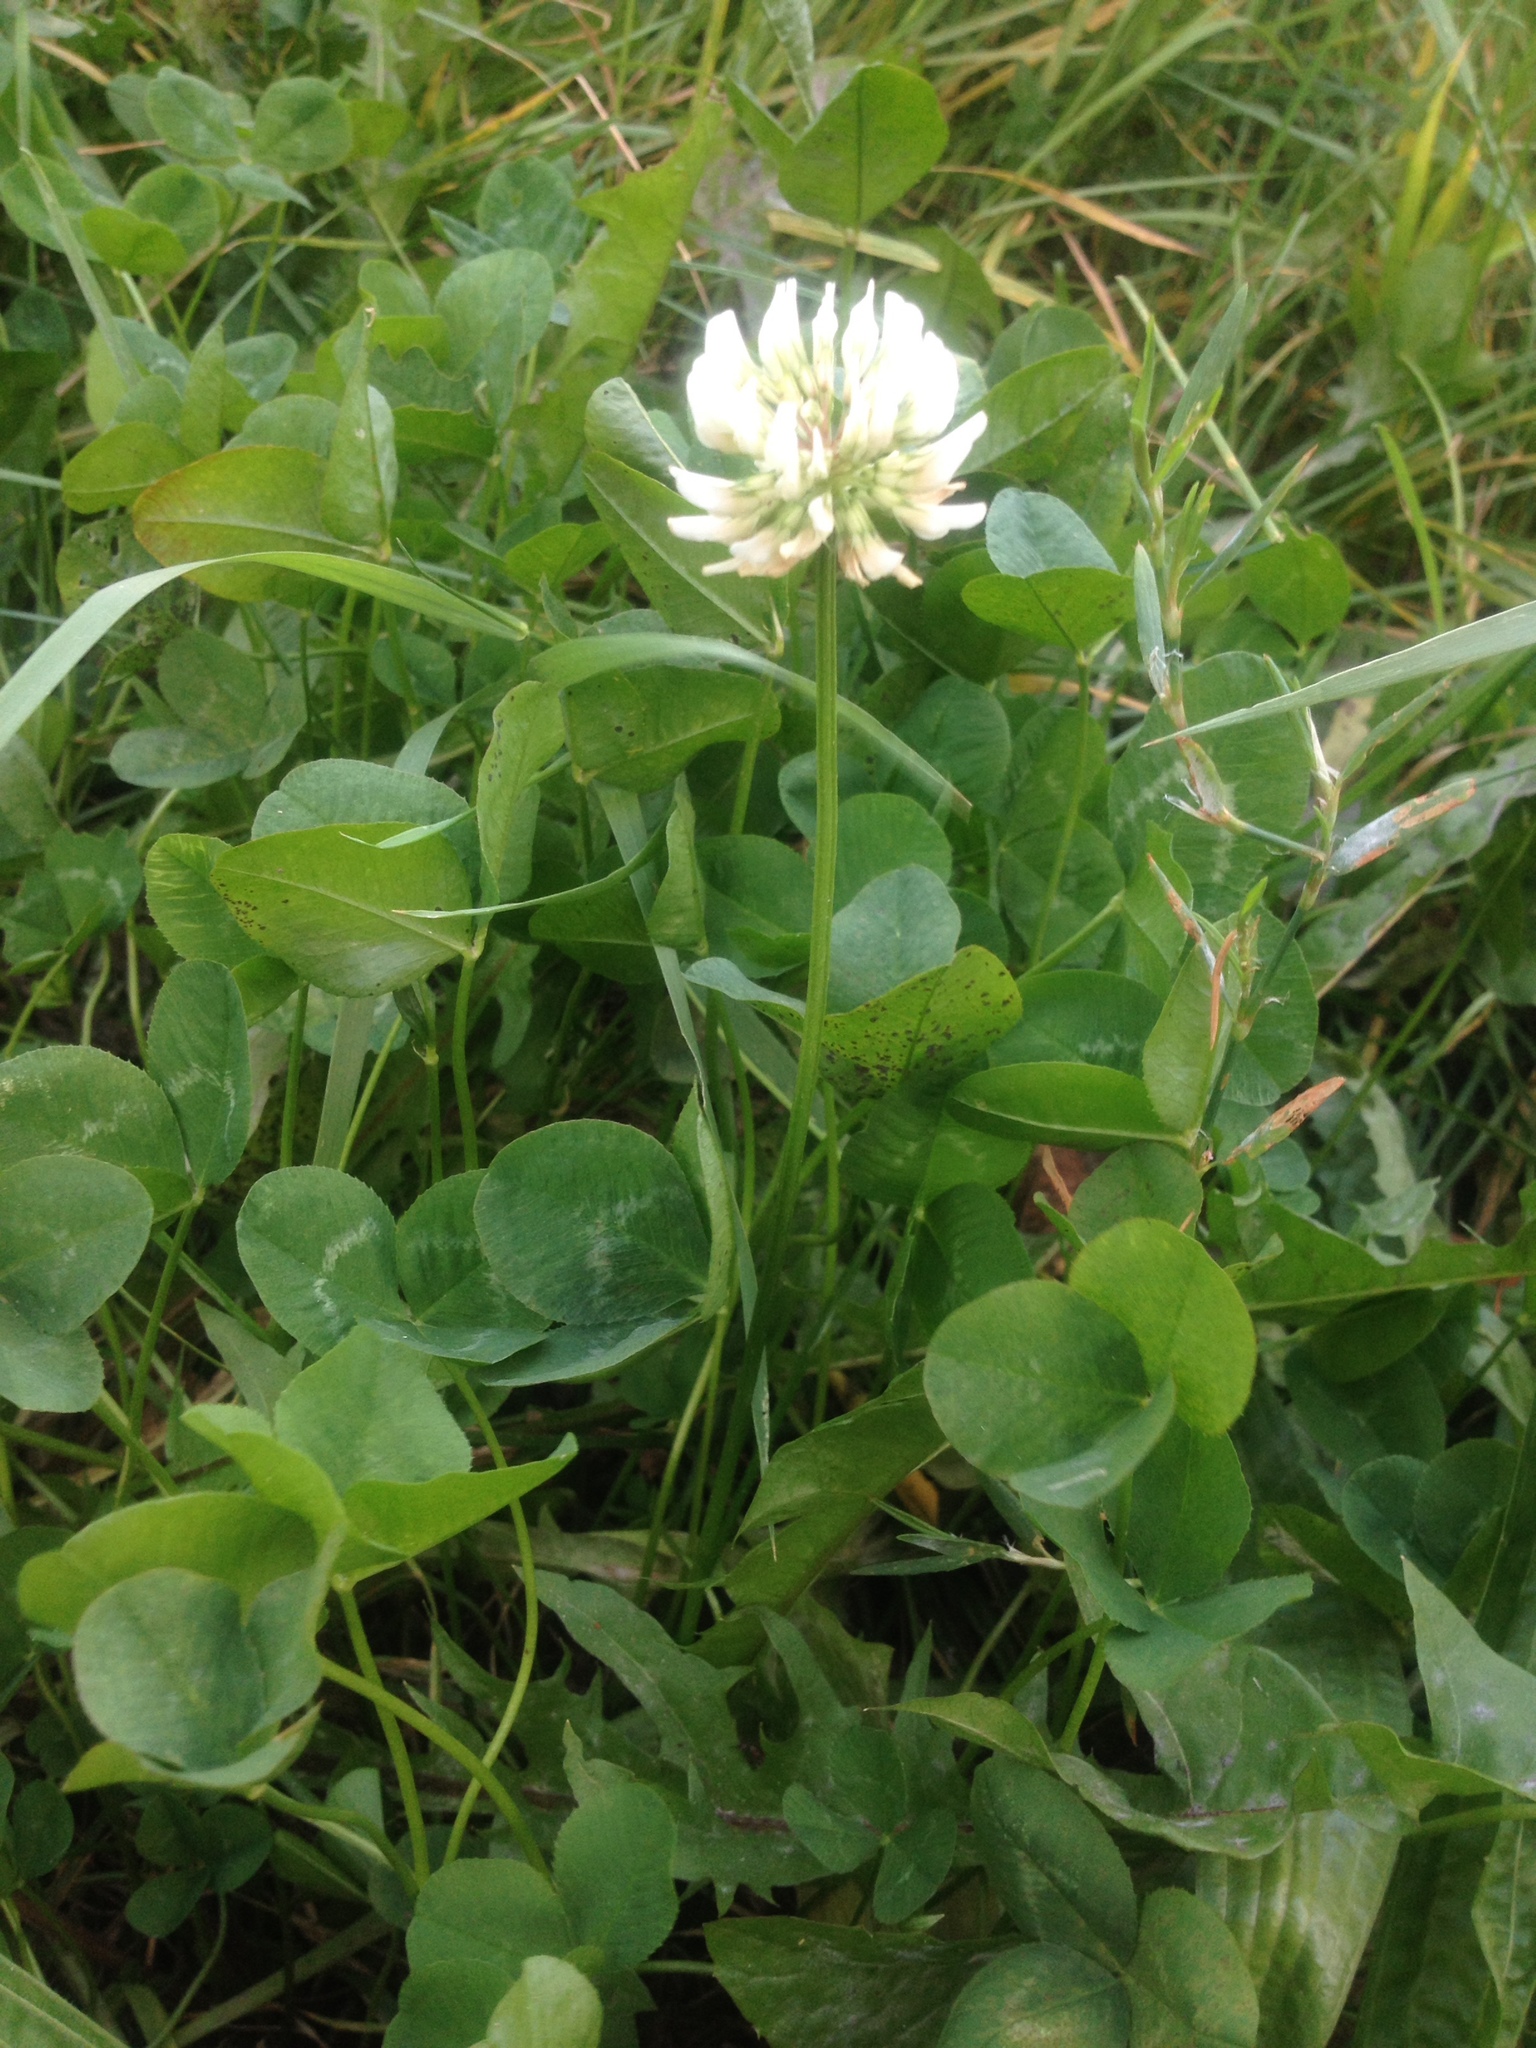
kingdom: Plantae
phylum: Tracheophyta
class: Magnoliopsida
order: Fabales
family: Fabaceae
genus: Trifolium
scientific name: Trifolium repens
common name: White clover
